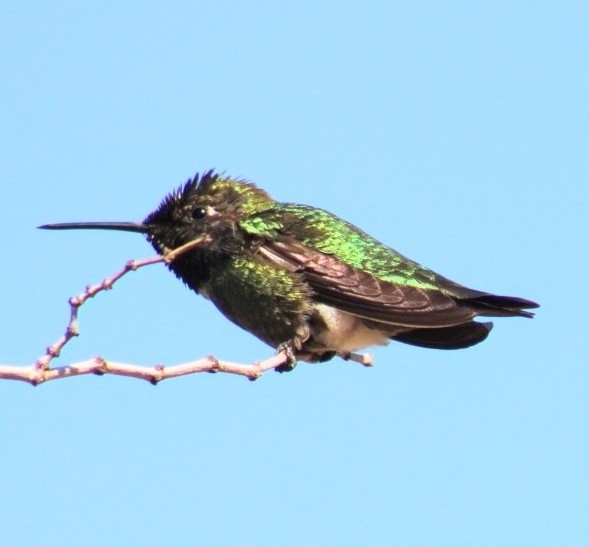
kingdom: Animalia
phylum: Chordata
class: Aves
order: Apodiformes
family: Trochilidae
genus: Calypte
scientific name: Calypte anna
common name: Anna's hummingbird
